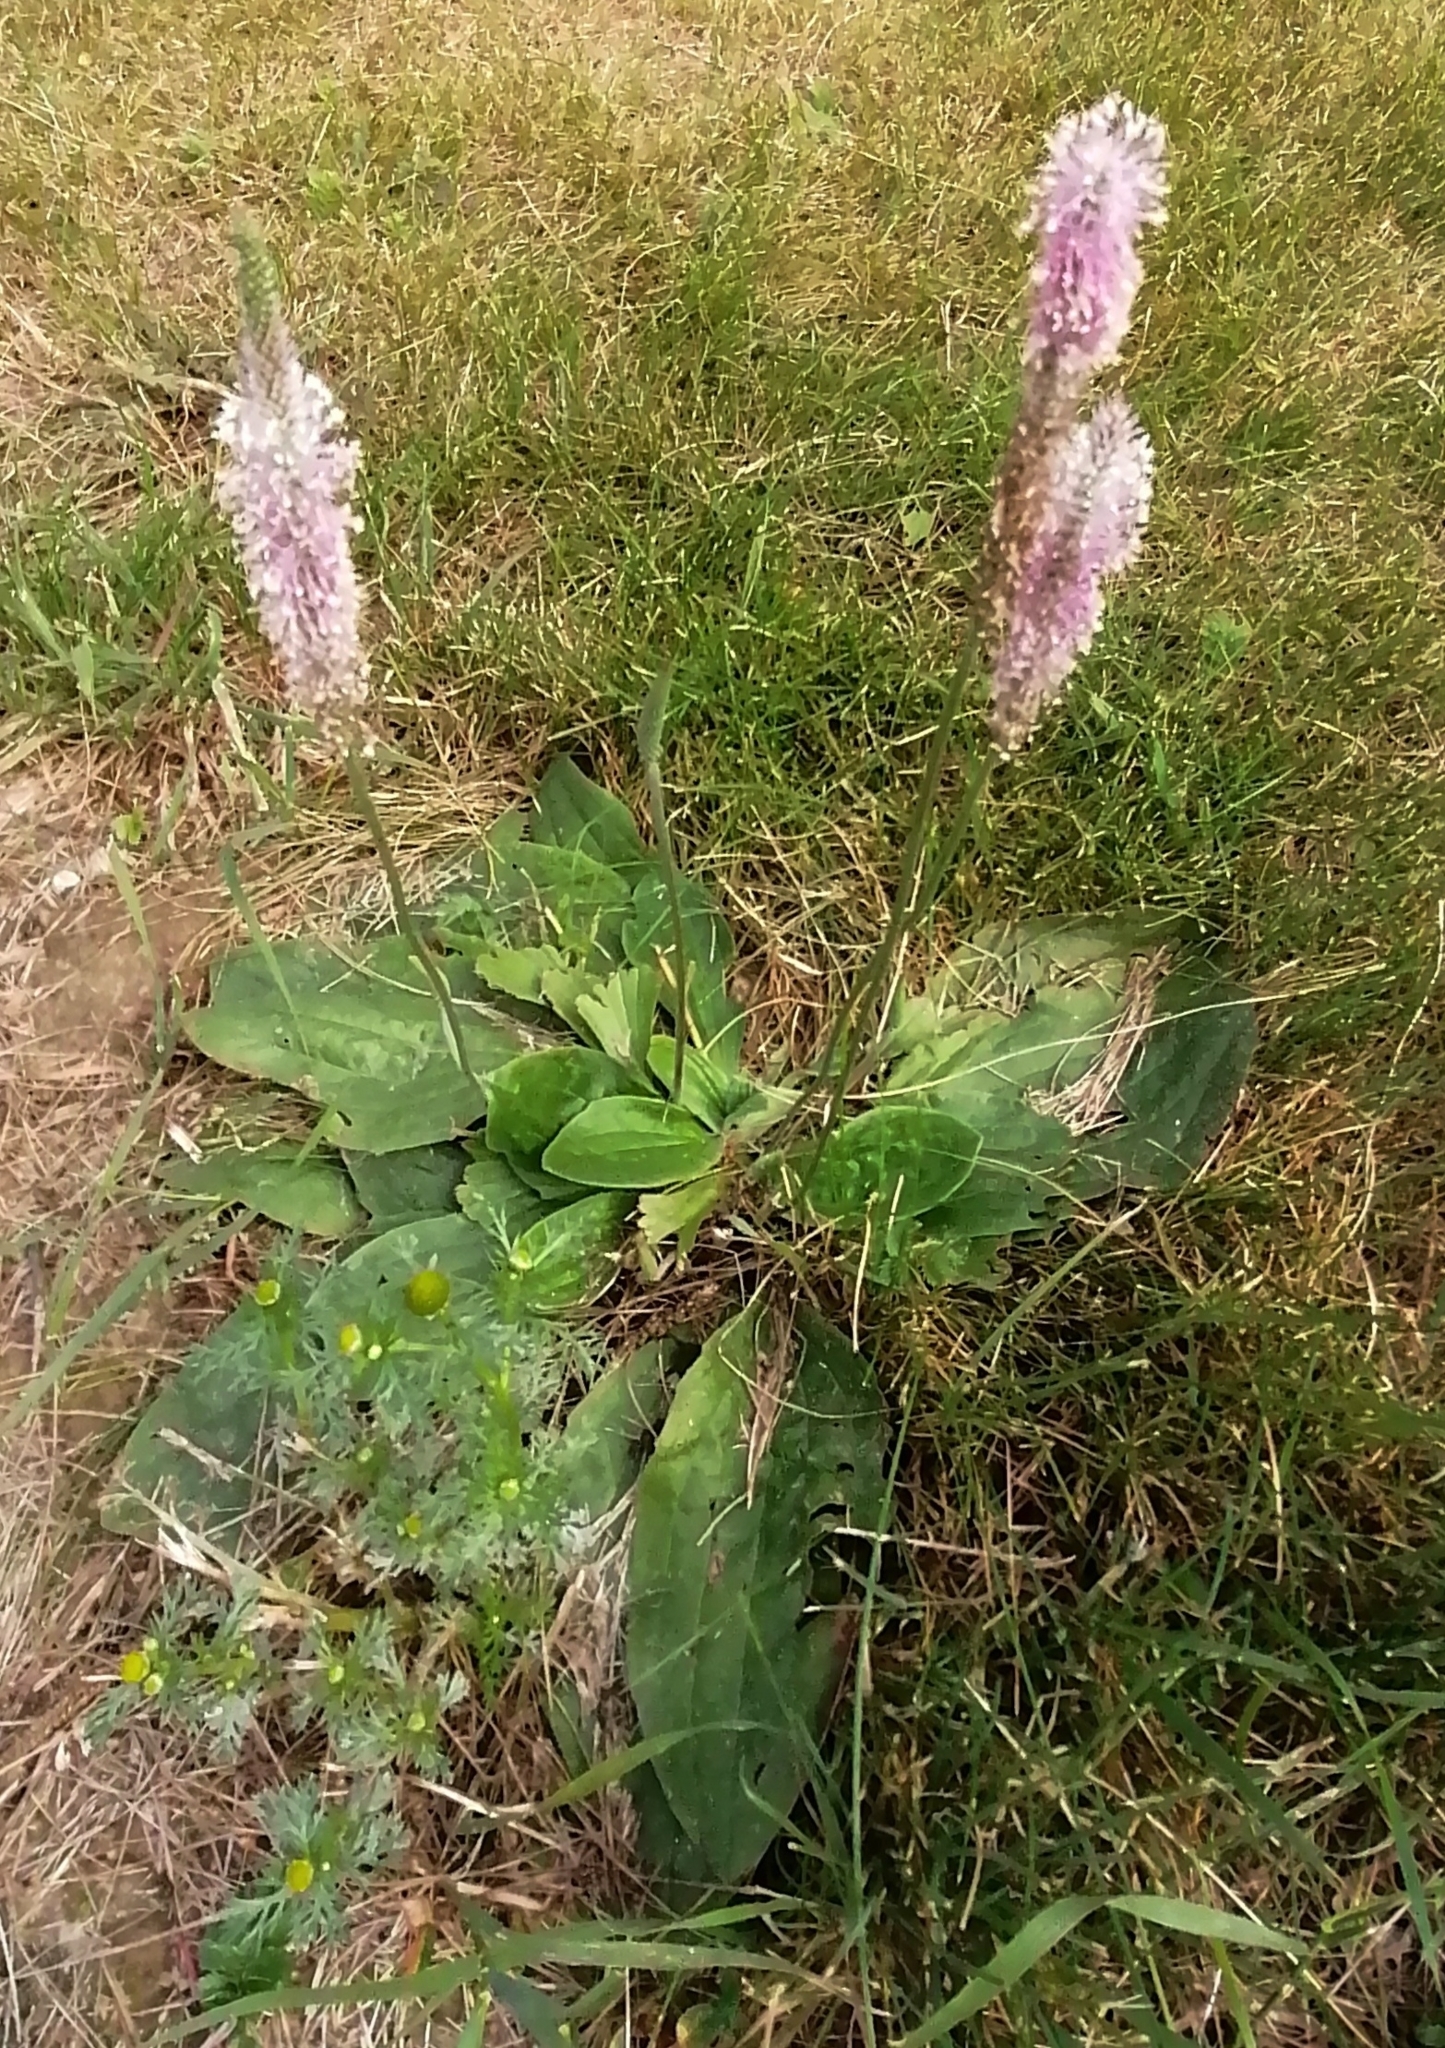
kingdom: Plantae
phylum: Tracheophyta
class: Magnoliopsida
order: Lamiales
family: Plantaginaceae
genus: Plantago
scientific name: Plantago media
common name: Hoary plantain
